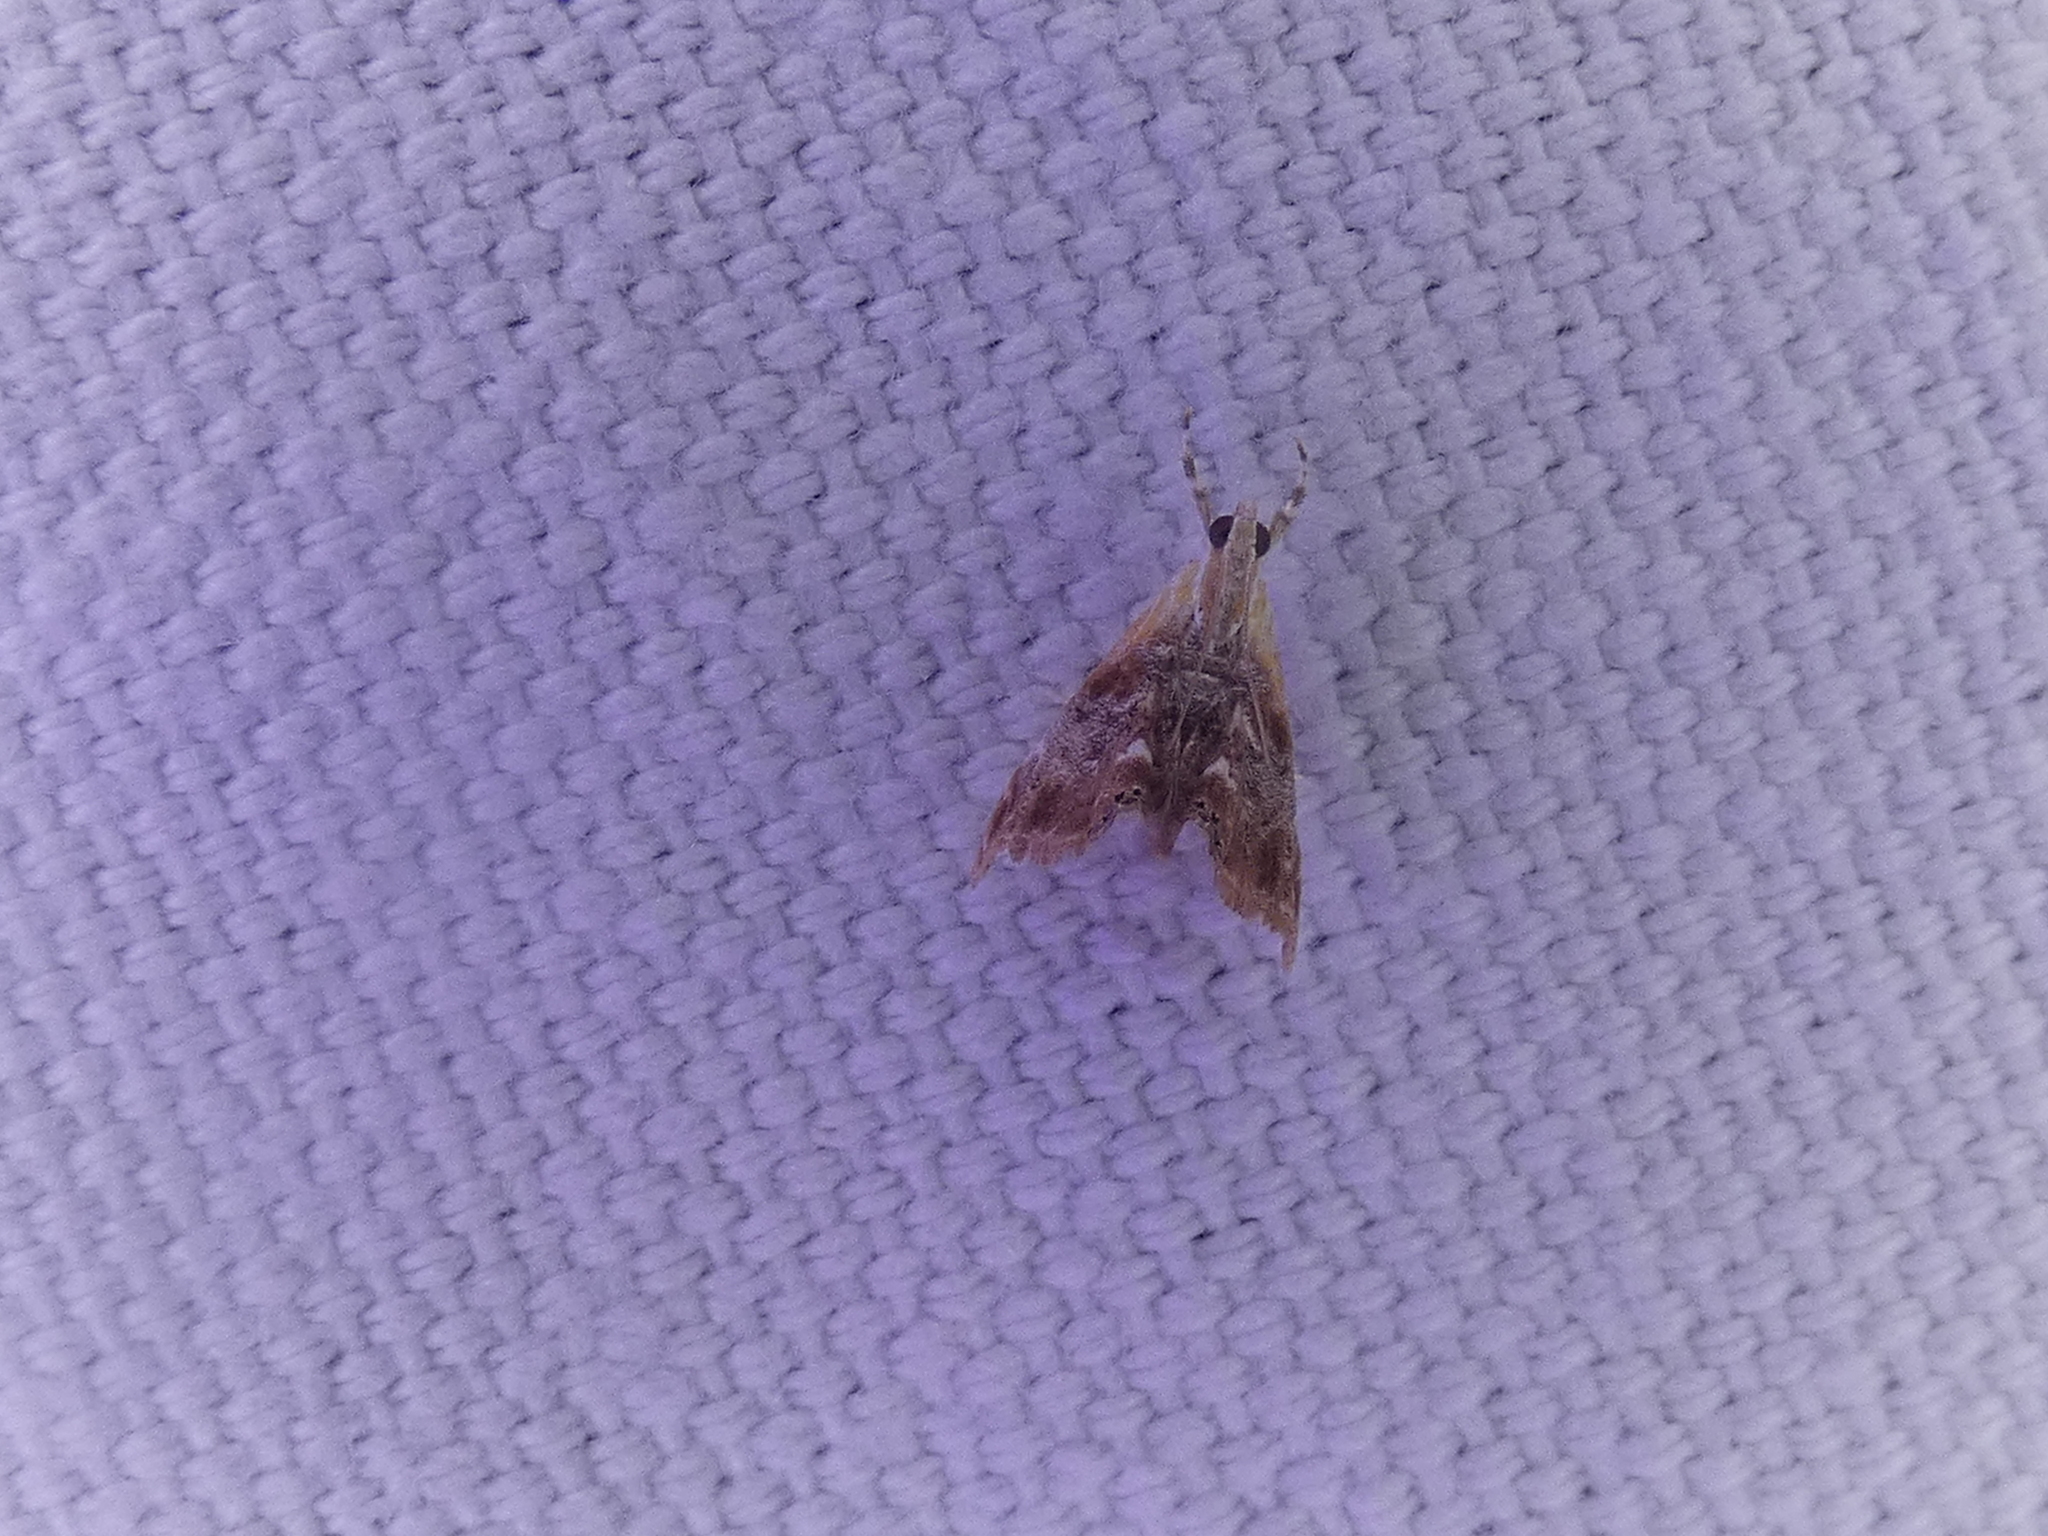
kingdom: Animalia
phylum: Arthropoda
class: Insecta
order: Lepidoptera
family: Crambidae
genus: Dicymolomia
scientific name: Dicymolomia julianalis
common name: Julia's dicymolomia moth
